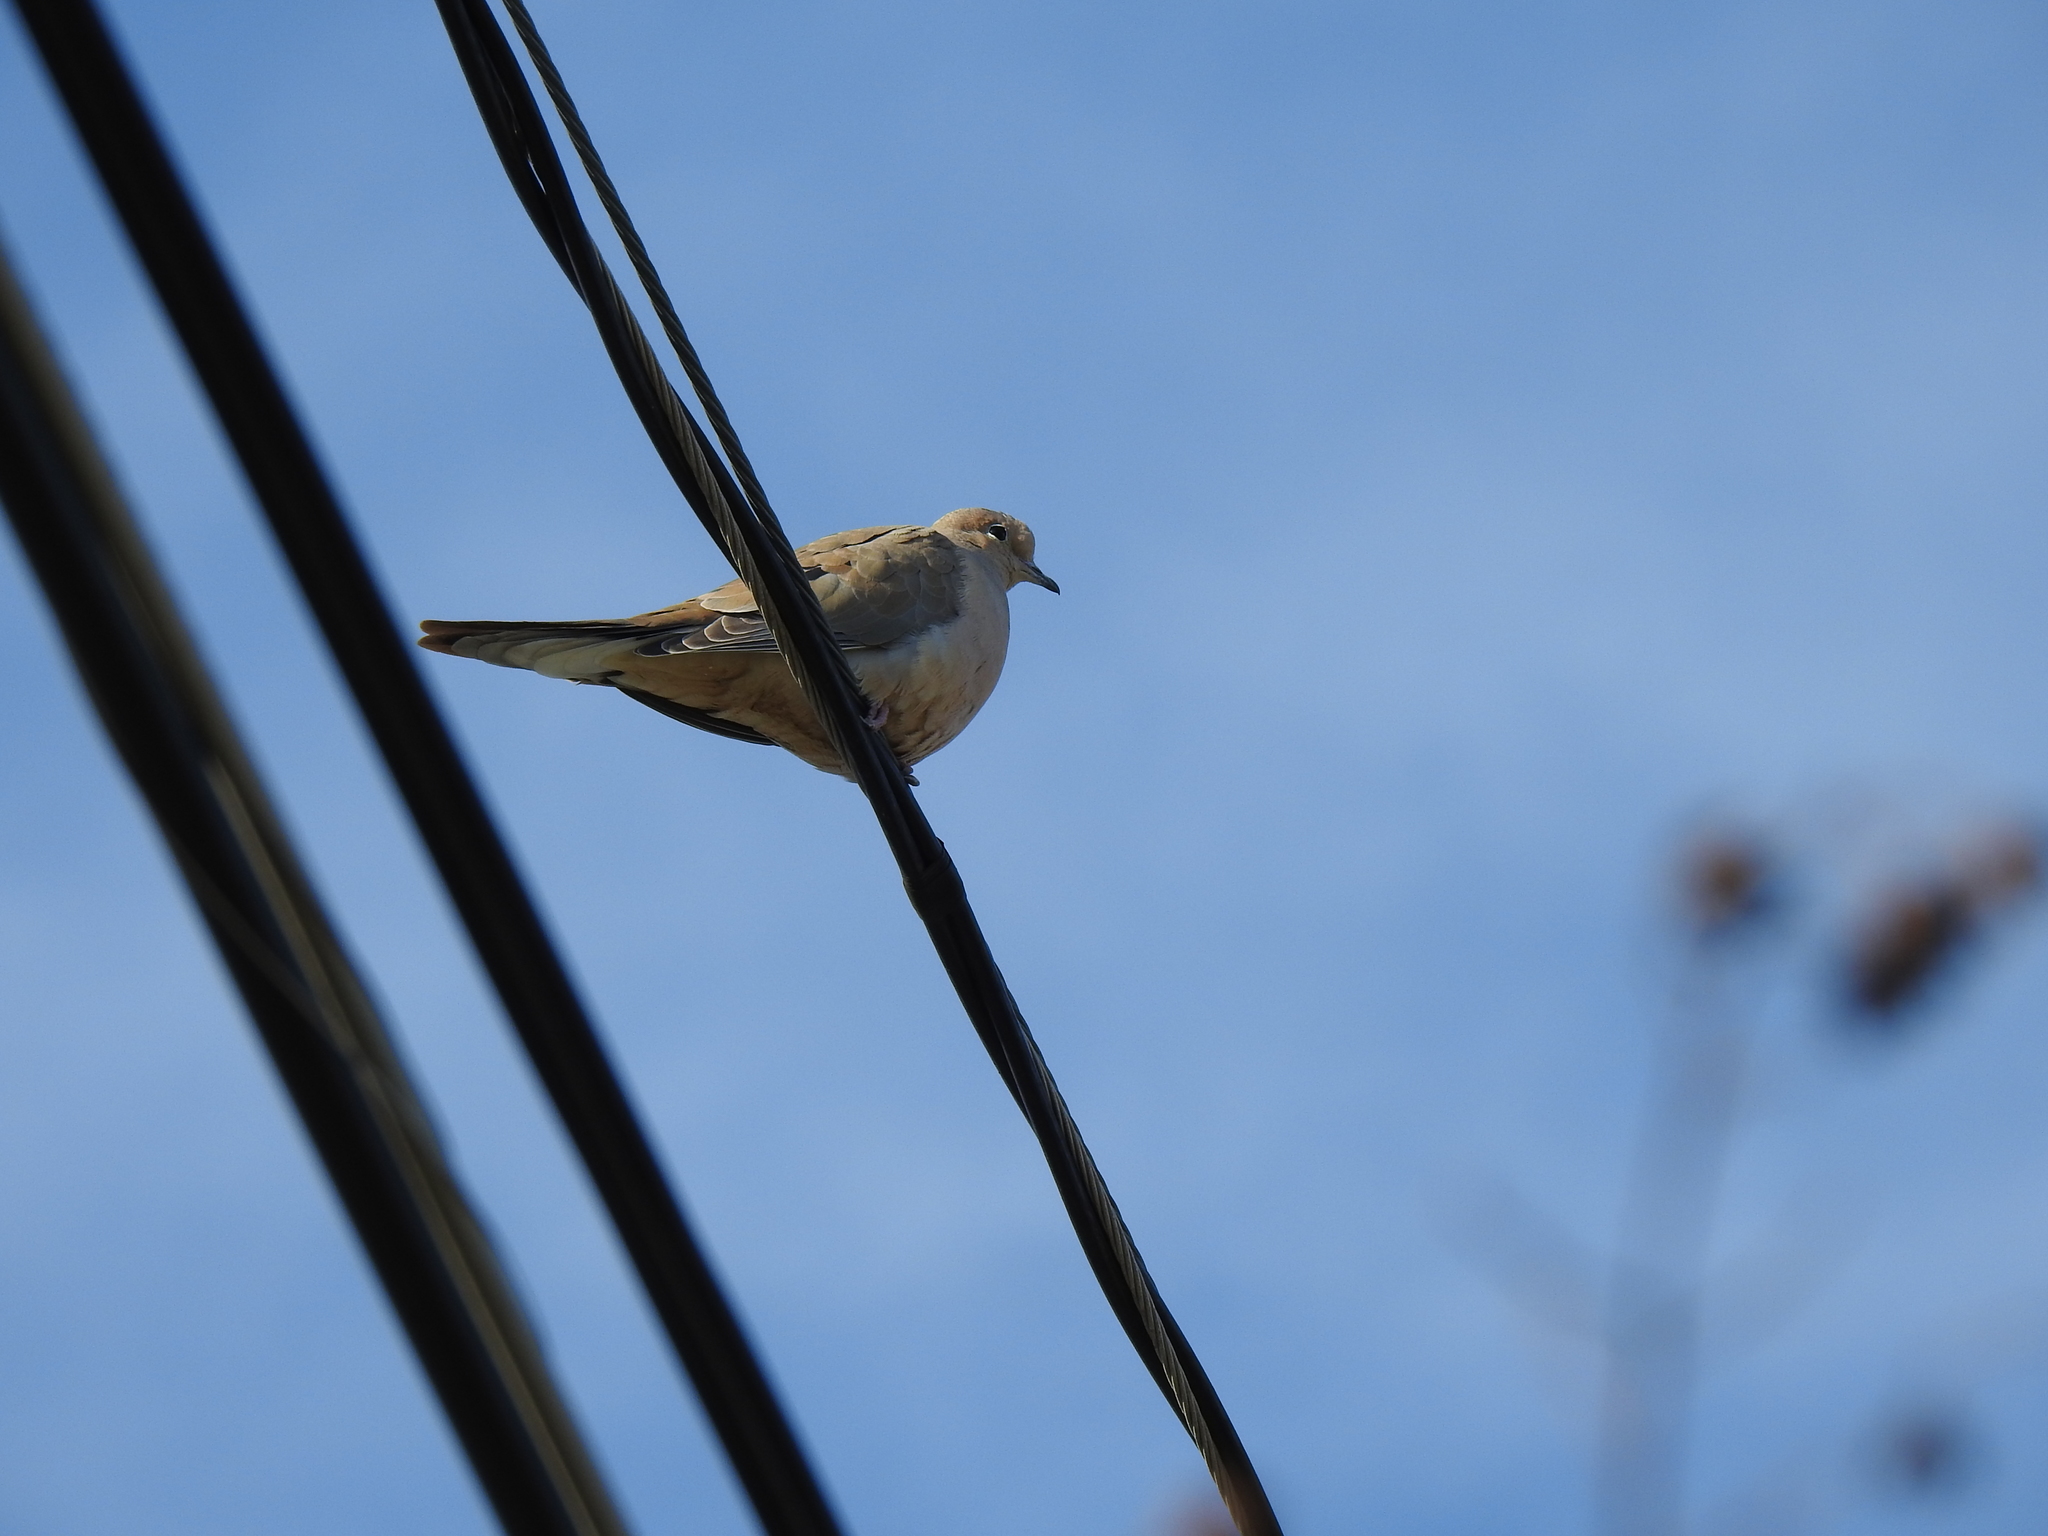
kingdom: Animalia
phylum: Chordata
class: Aves
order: Columbiformes
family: Columbidae
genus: Zenaida
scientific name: Zenaida macroura
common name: Mourning dove
